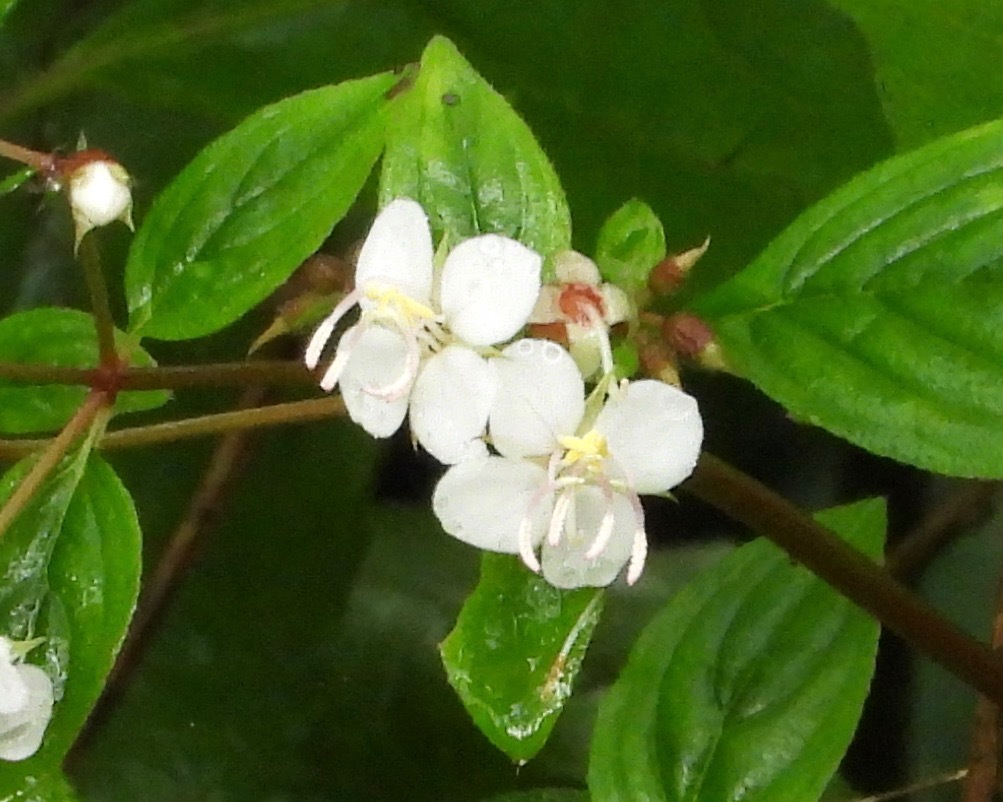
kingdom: Plantae
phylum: Tracheophyta
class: Magnoliopsida
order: Myrtales
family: Melastomataceae
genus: Heterocentron
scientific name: Heterocentron subtriplinervium
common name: Pearl flower
